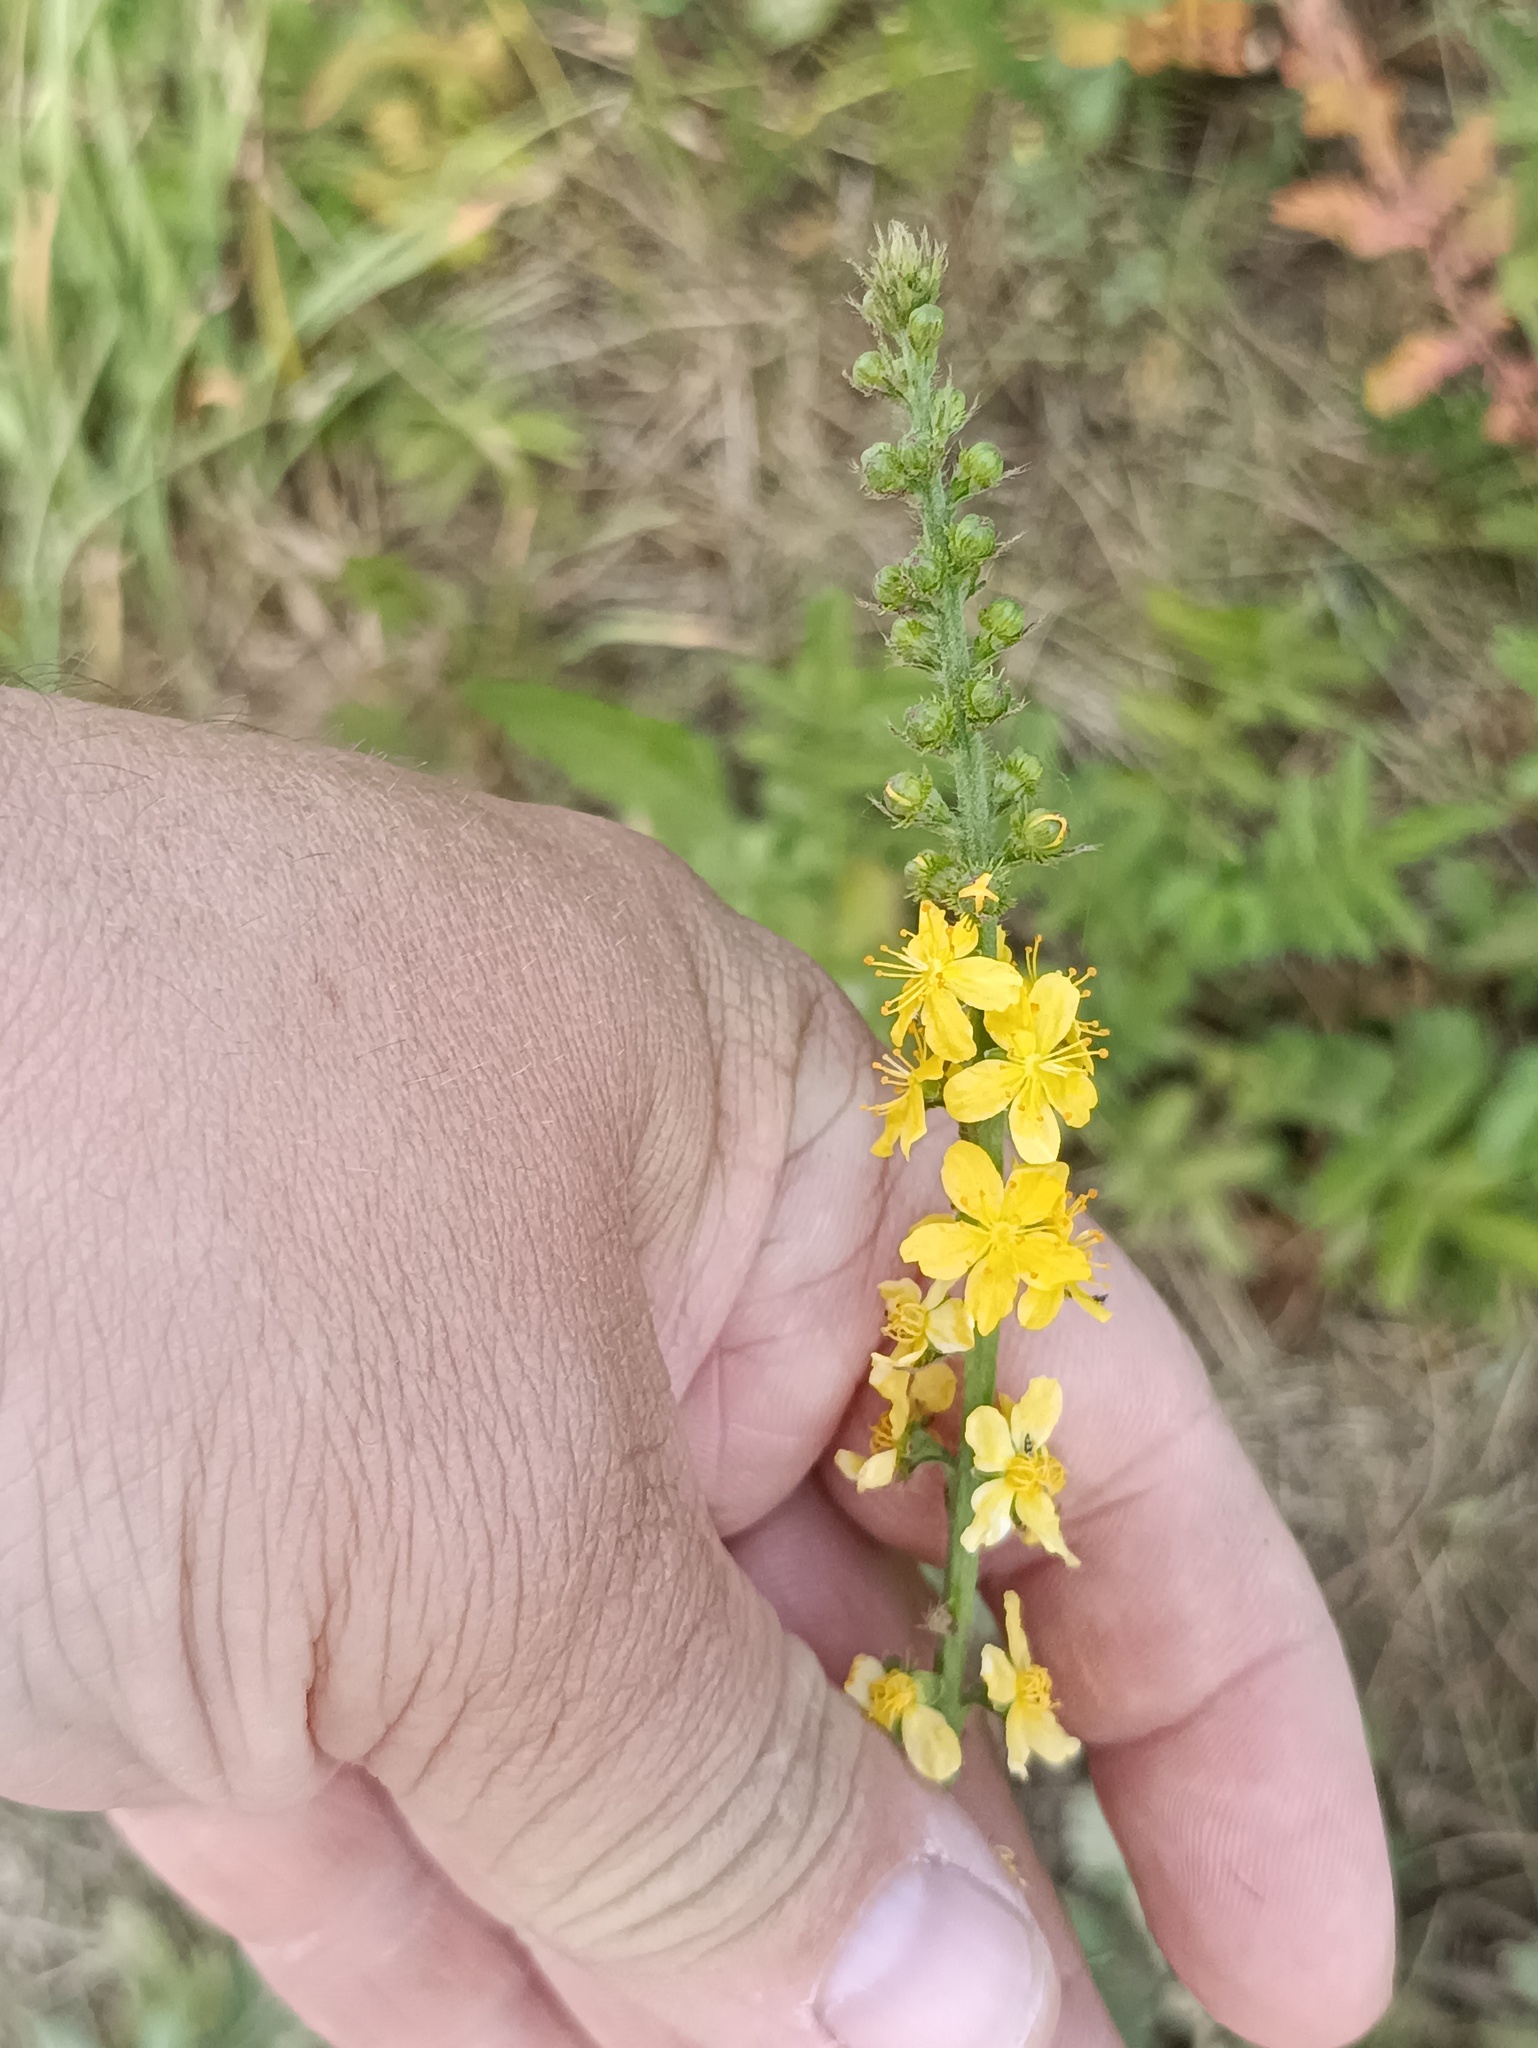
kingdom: Plantae
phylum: Tracheophyta
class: Magnoliopsida
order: Rosales
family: Rosaceae
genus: Agrimonia
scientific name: Agrimonia eupatoria
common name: Agrimony
